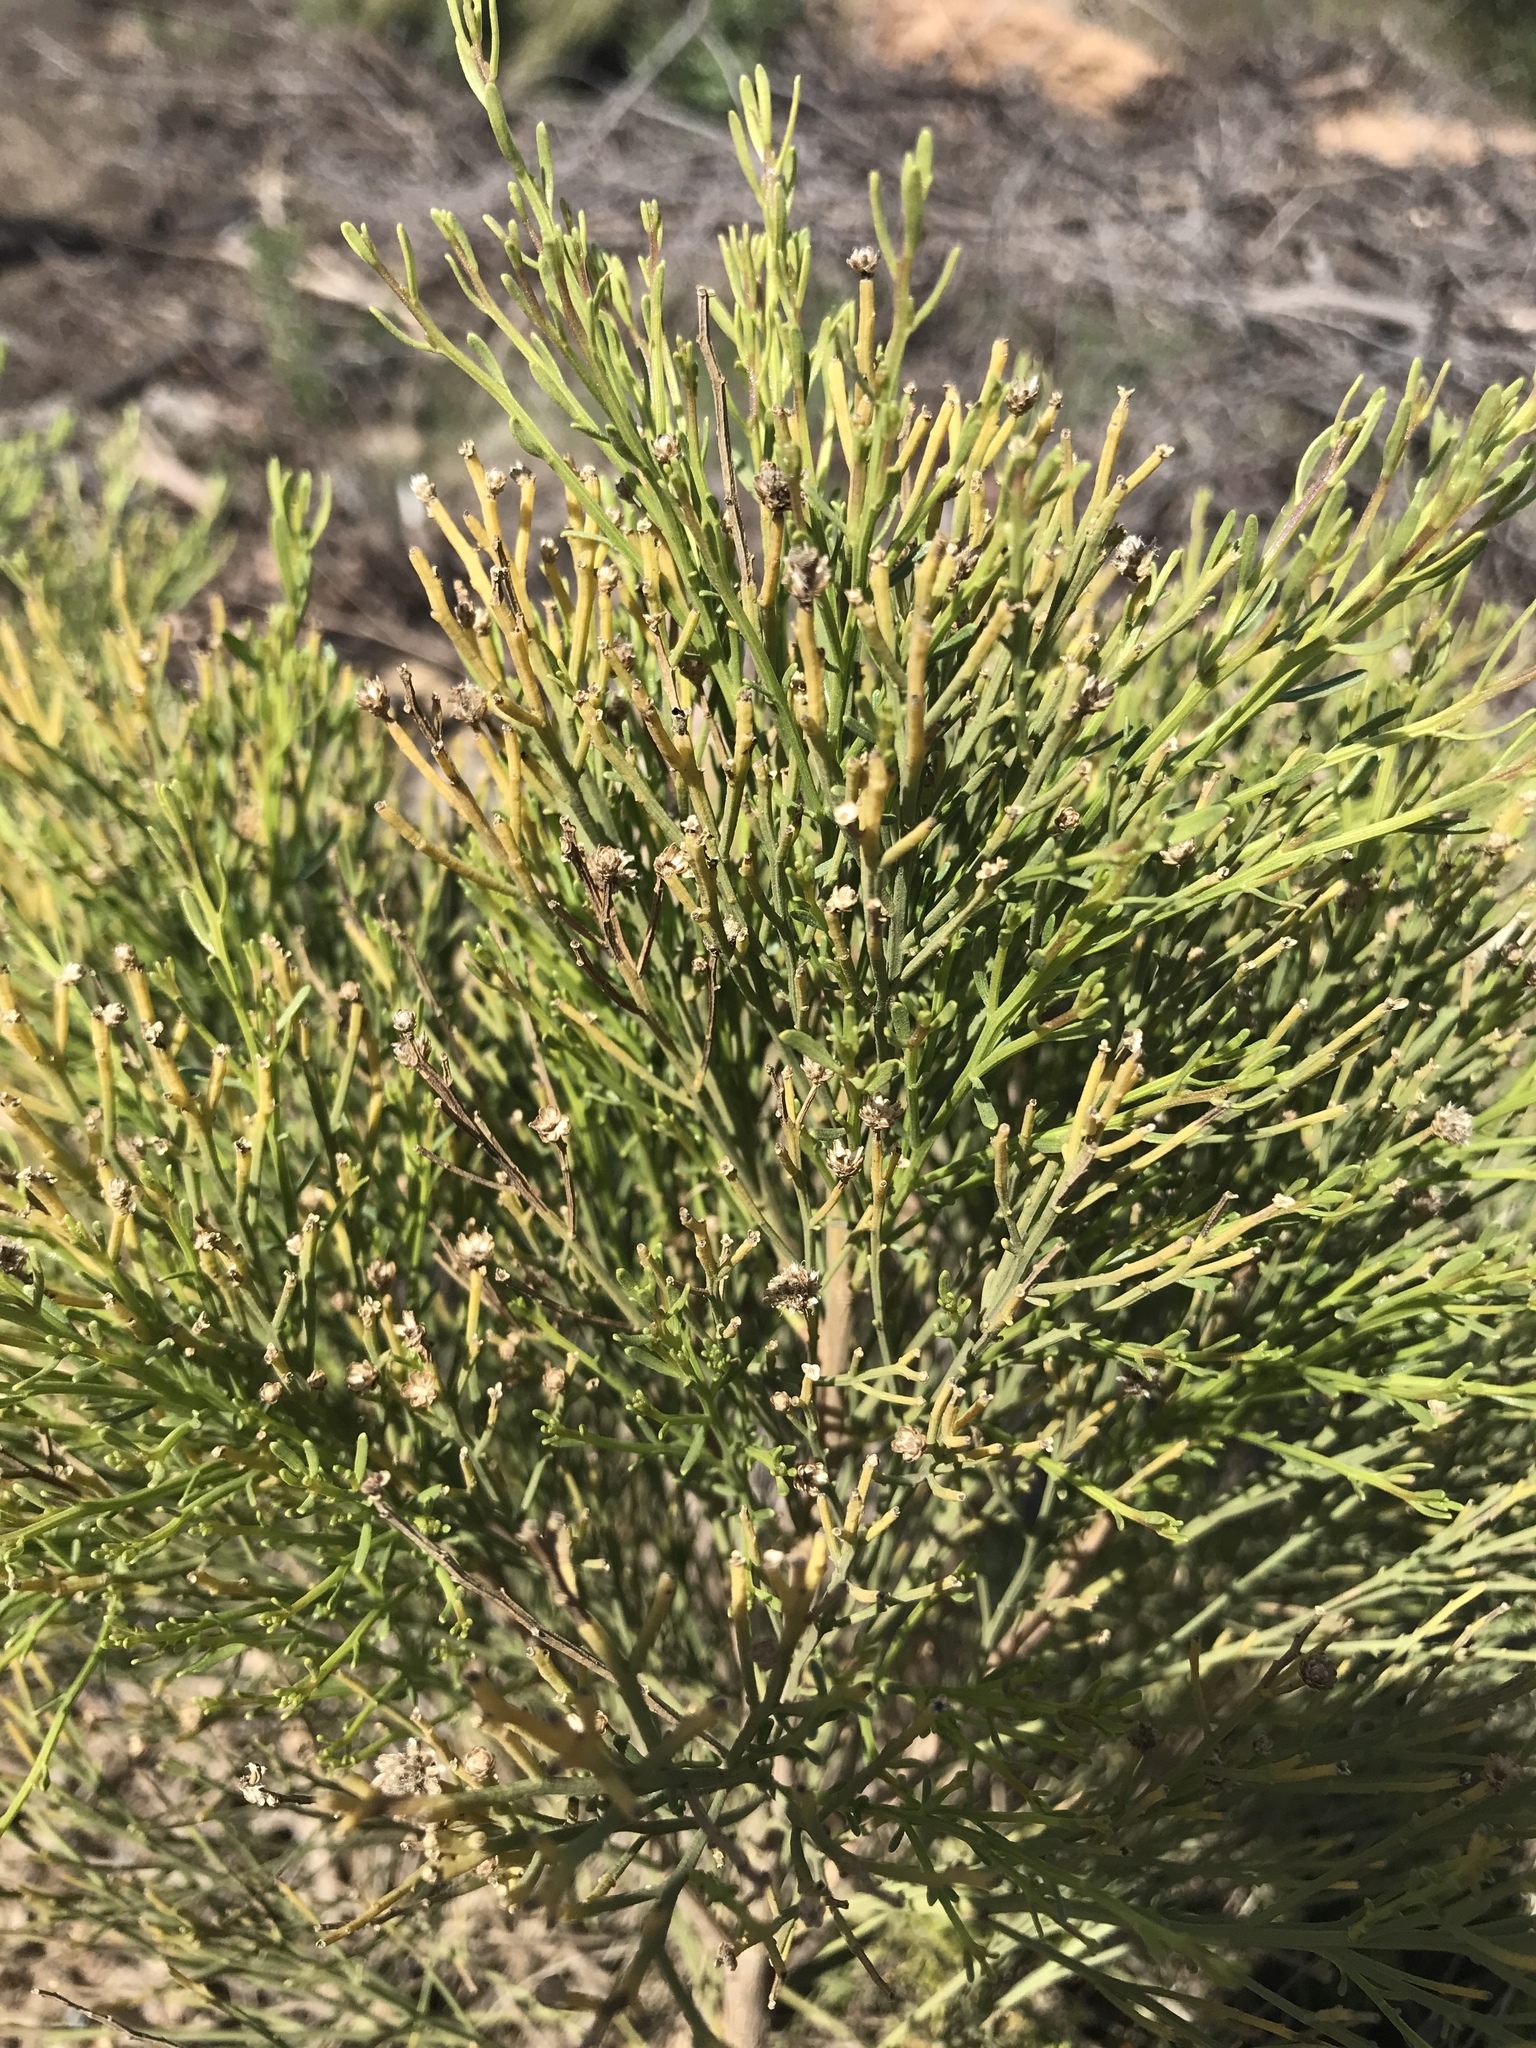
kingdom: Plantae
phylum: Tracheophyta
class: Magnoliopsida
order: Asterales
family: Asteraceae
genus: Baccharis
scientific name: Baccharis sarothroides
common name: Desert-broom
